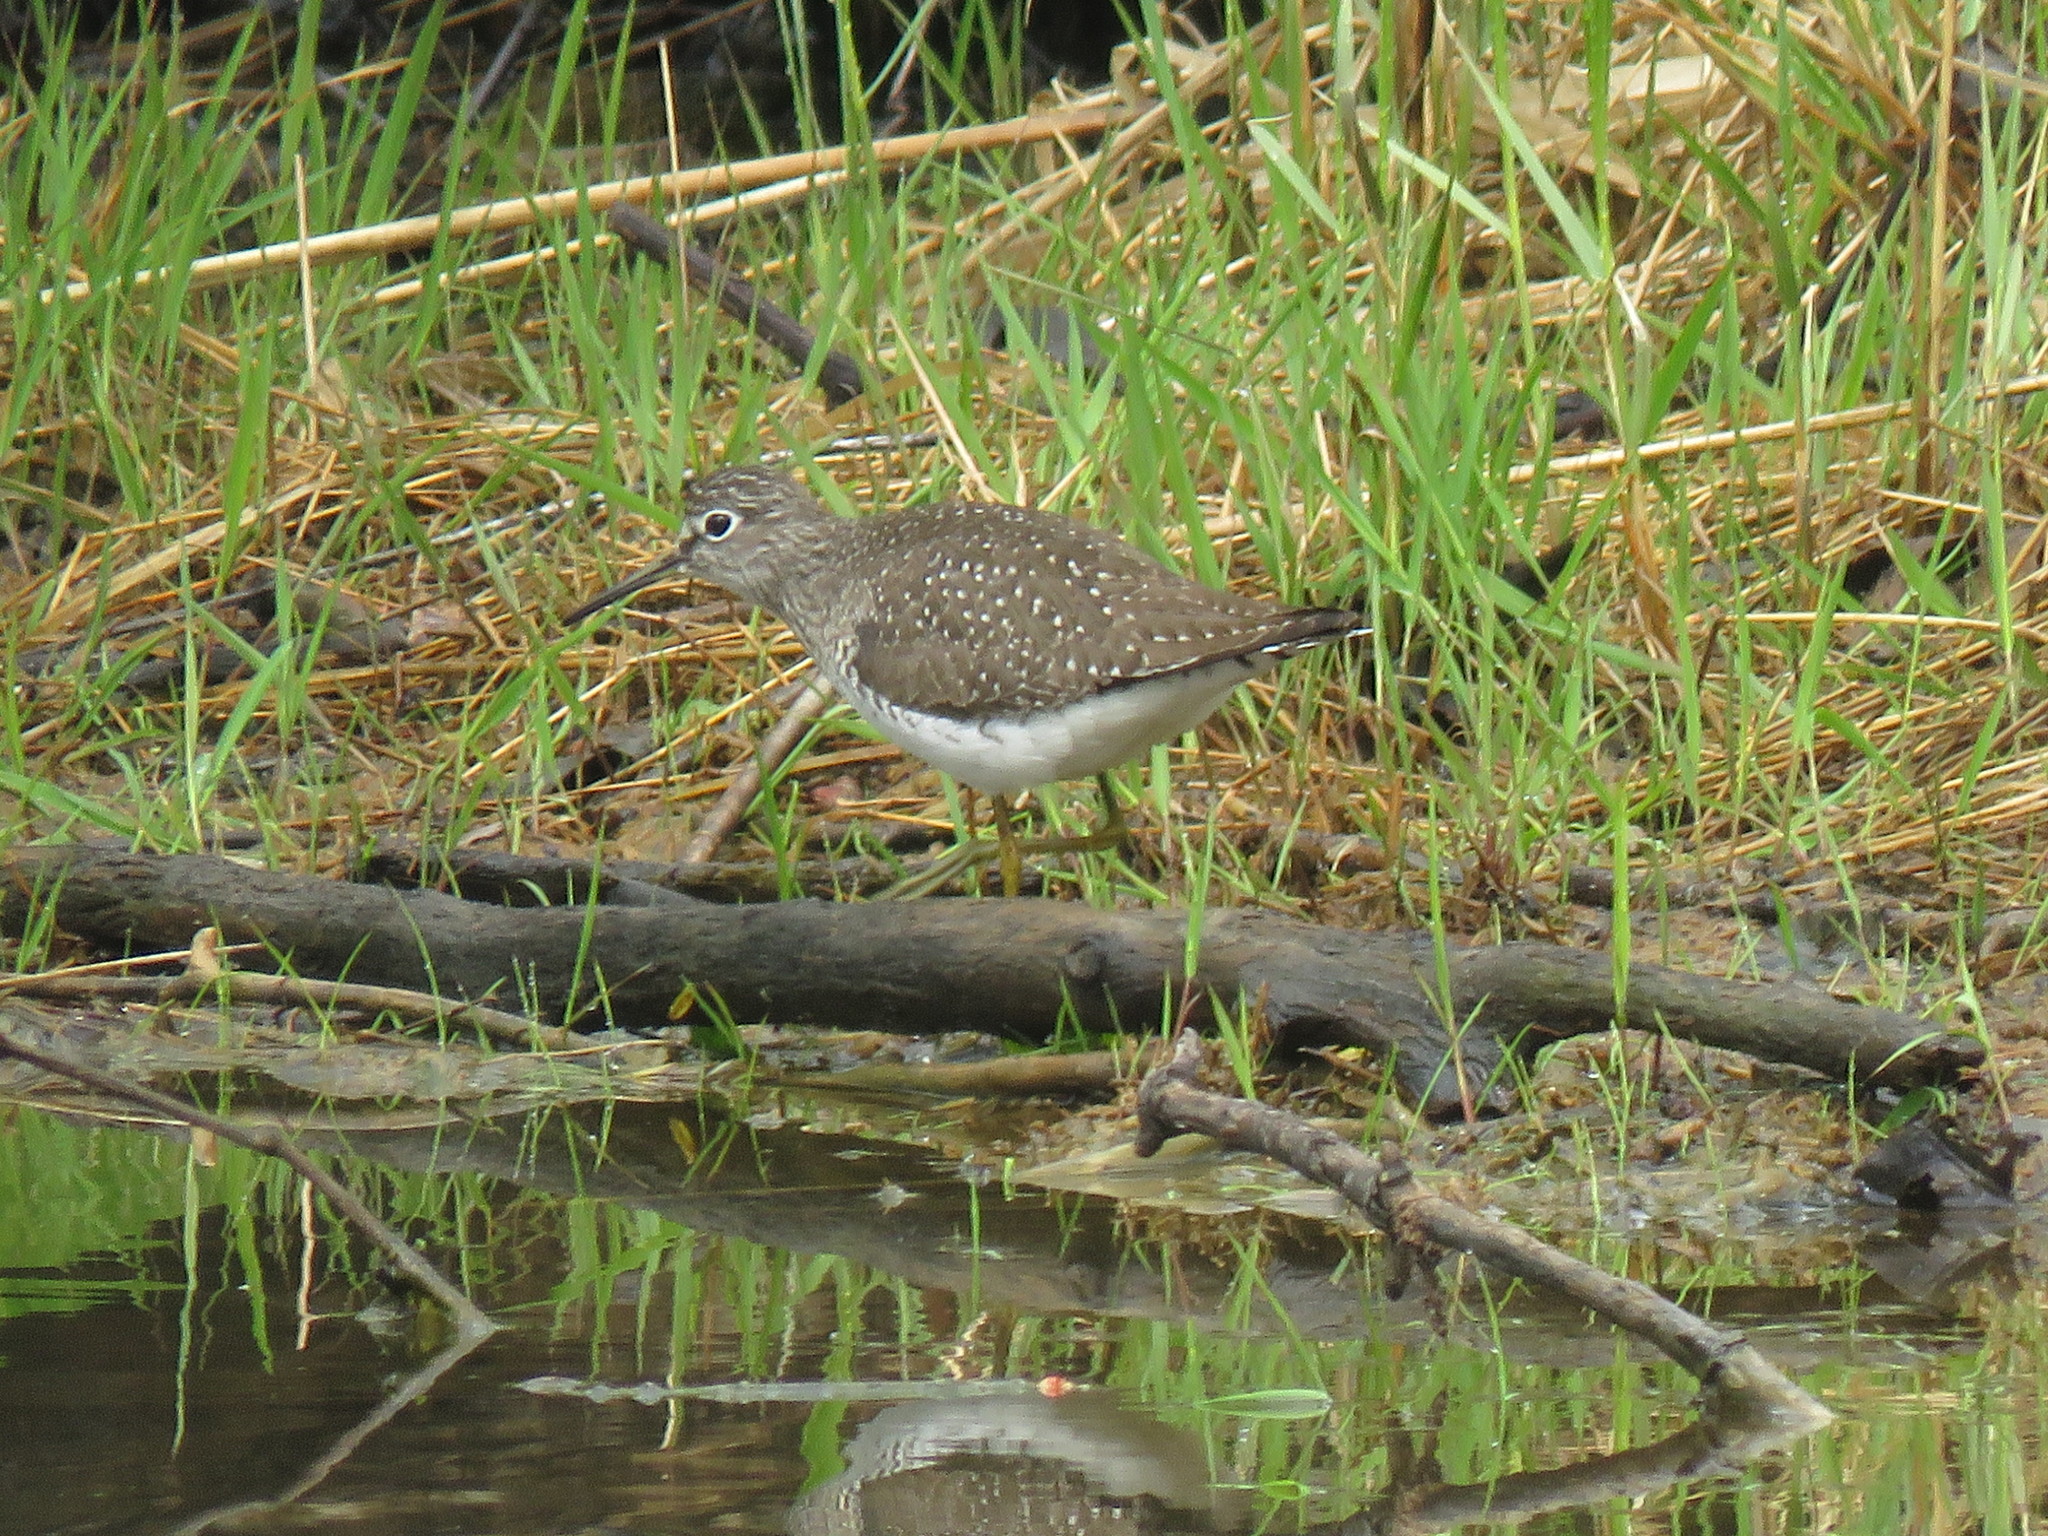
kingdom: Animalia
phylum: Chordata
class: Aves
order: Charadriiformes
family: Scolopacidae
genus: Tringa
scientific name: Tringa solitaria
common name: Solitary sandpiper
